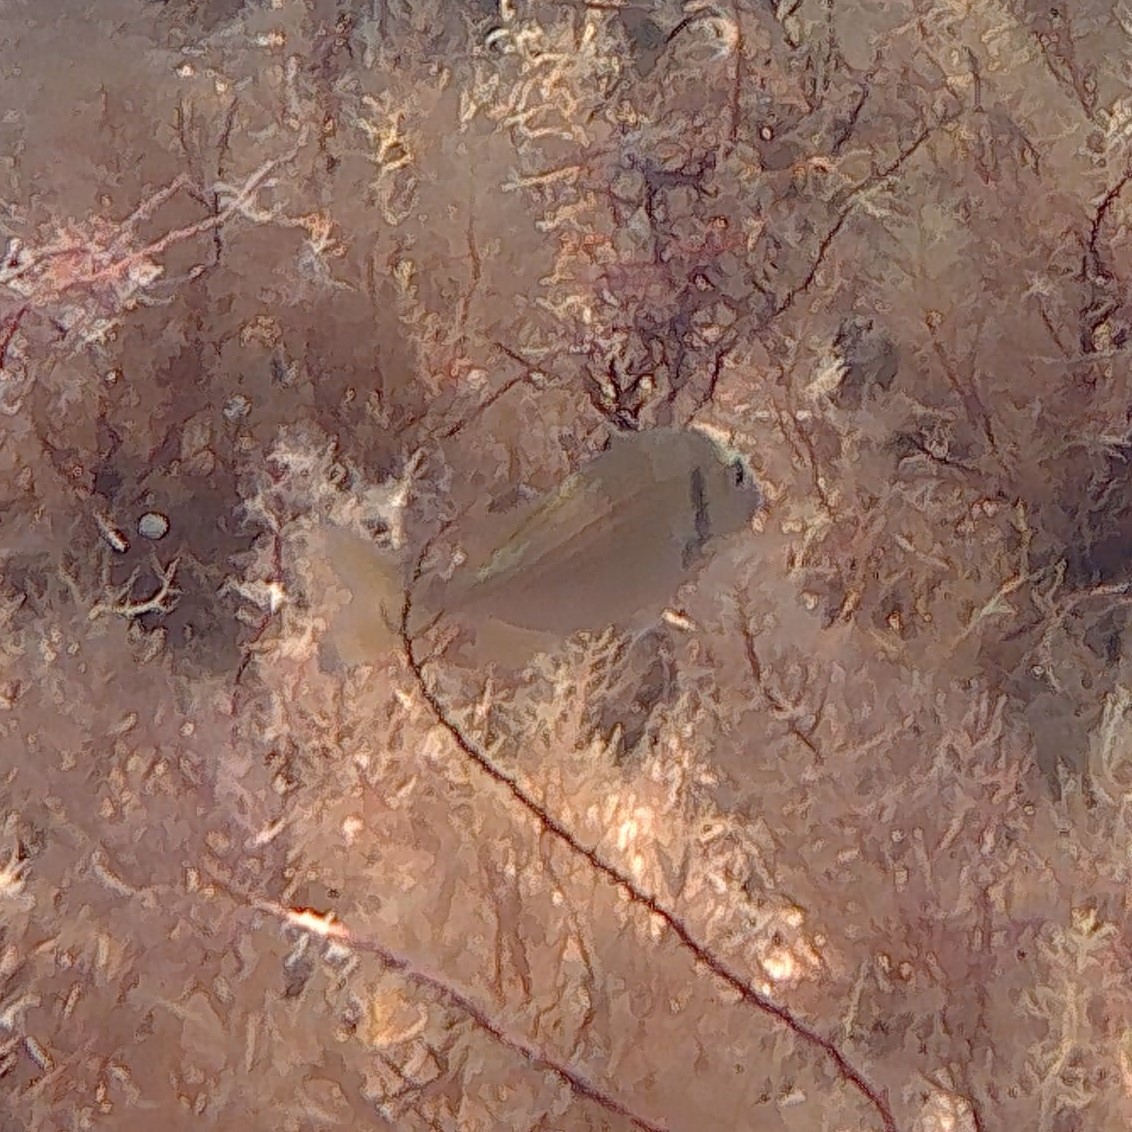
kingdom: Animalia
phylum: Chordata
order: Perciformes
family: Sparidae
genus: Sparus
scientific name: Sparus aurata
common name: Gilthead
